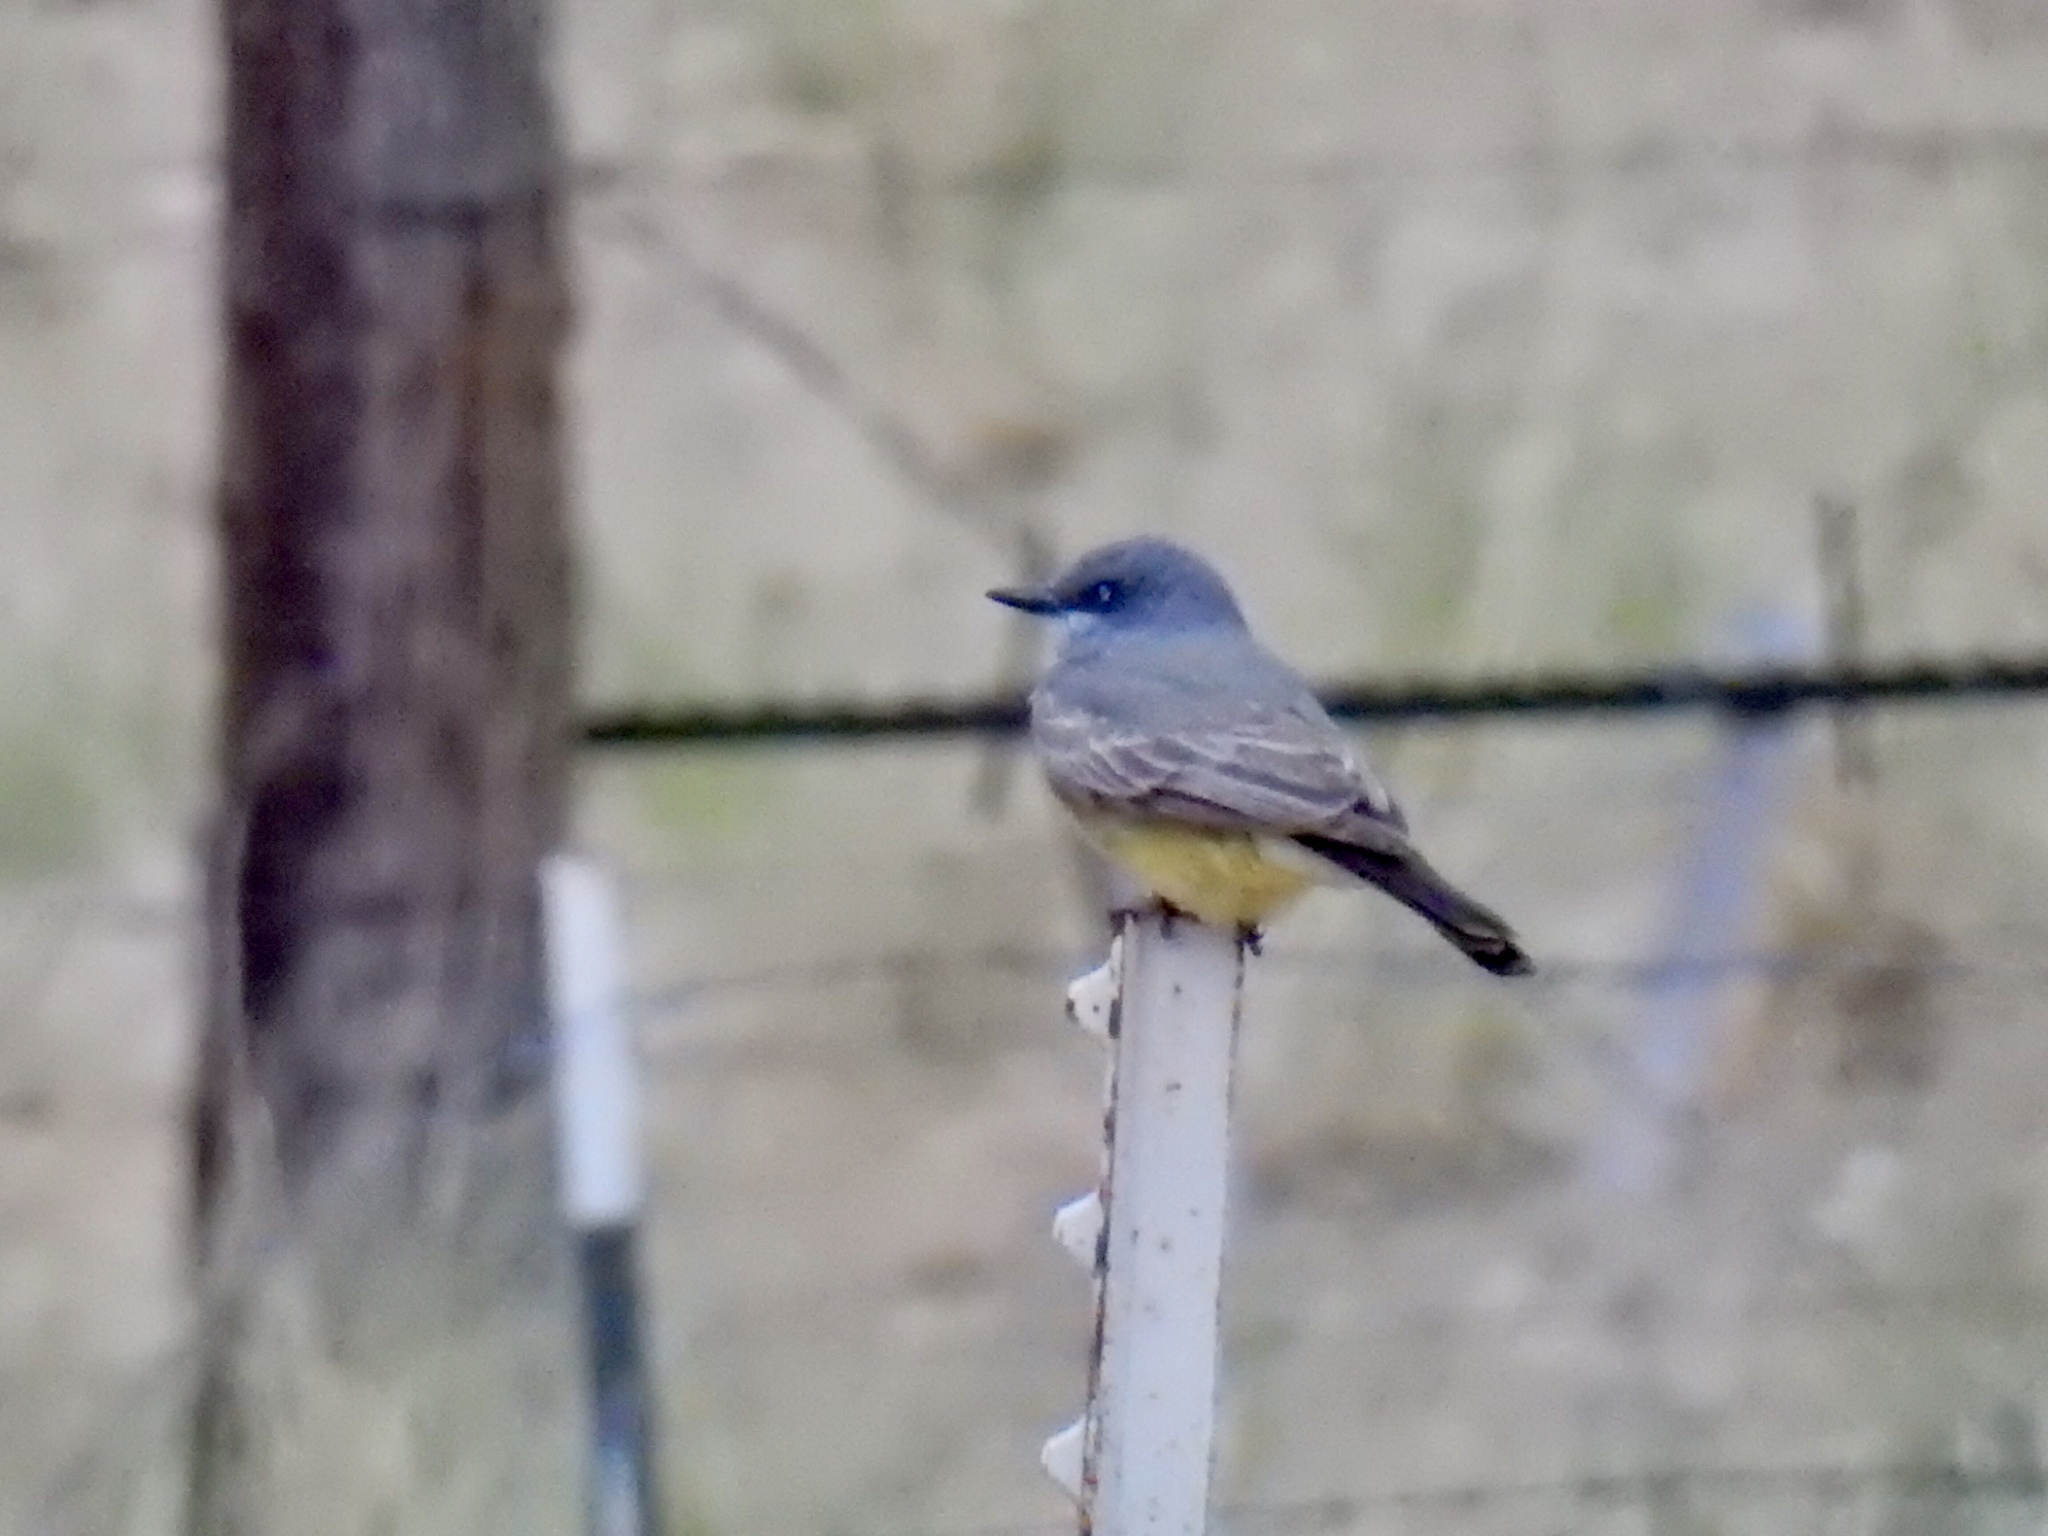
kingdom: Animalia
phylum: Chordata
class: Aves
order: Passeriformes
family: Tyrannidae
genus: Tyrannus
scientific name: Tyrannus vociferans
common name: Cassin's kingbird
